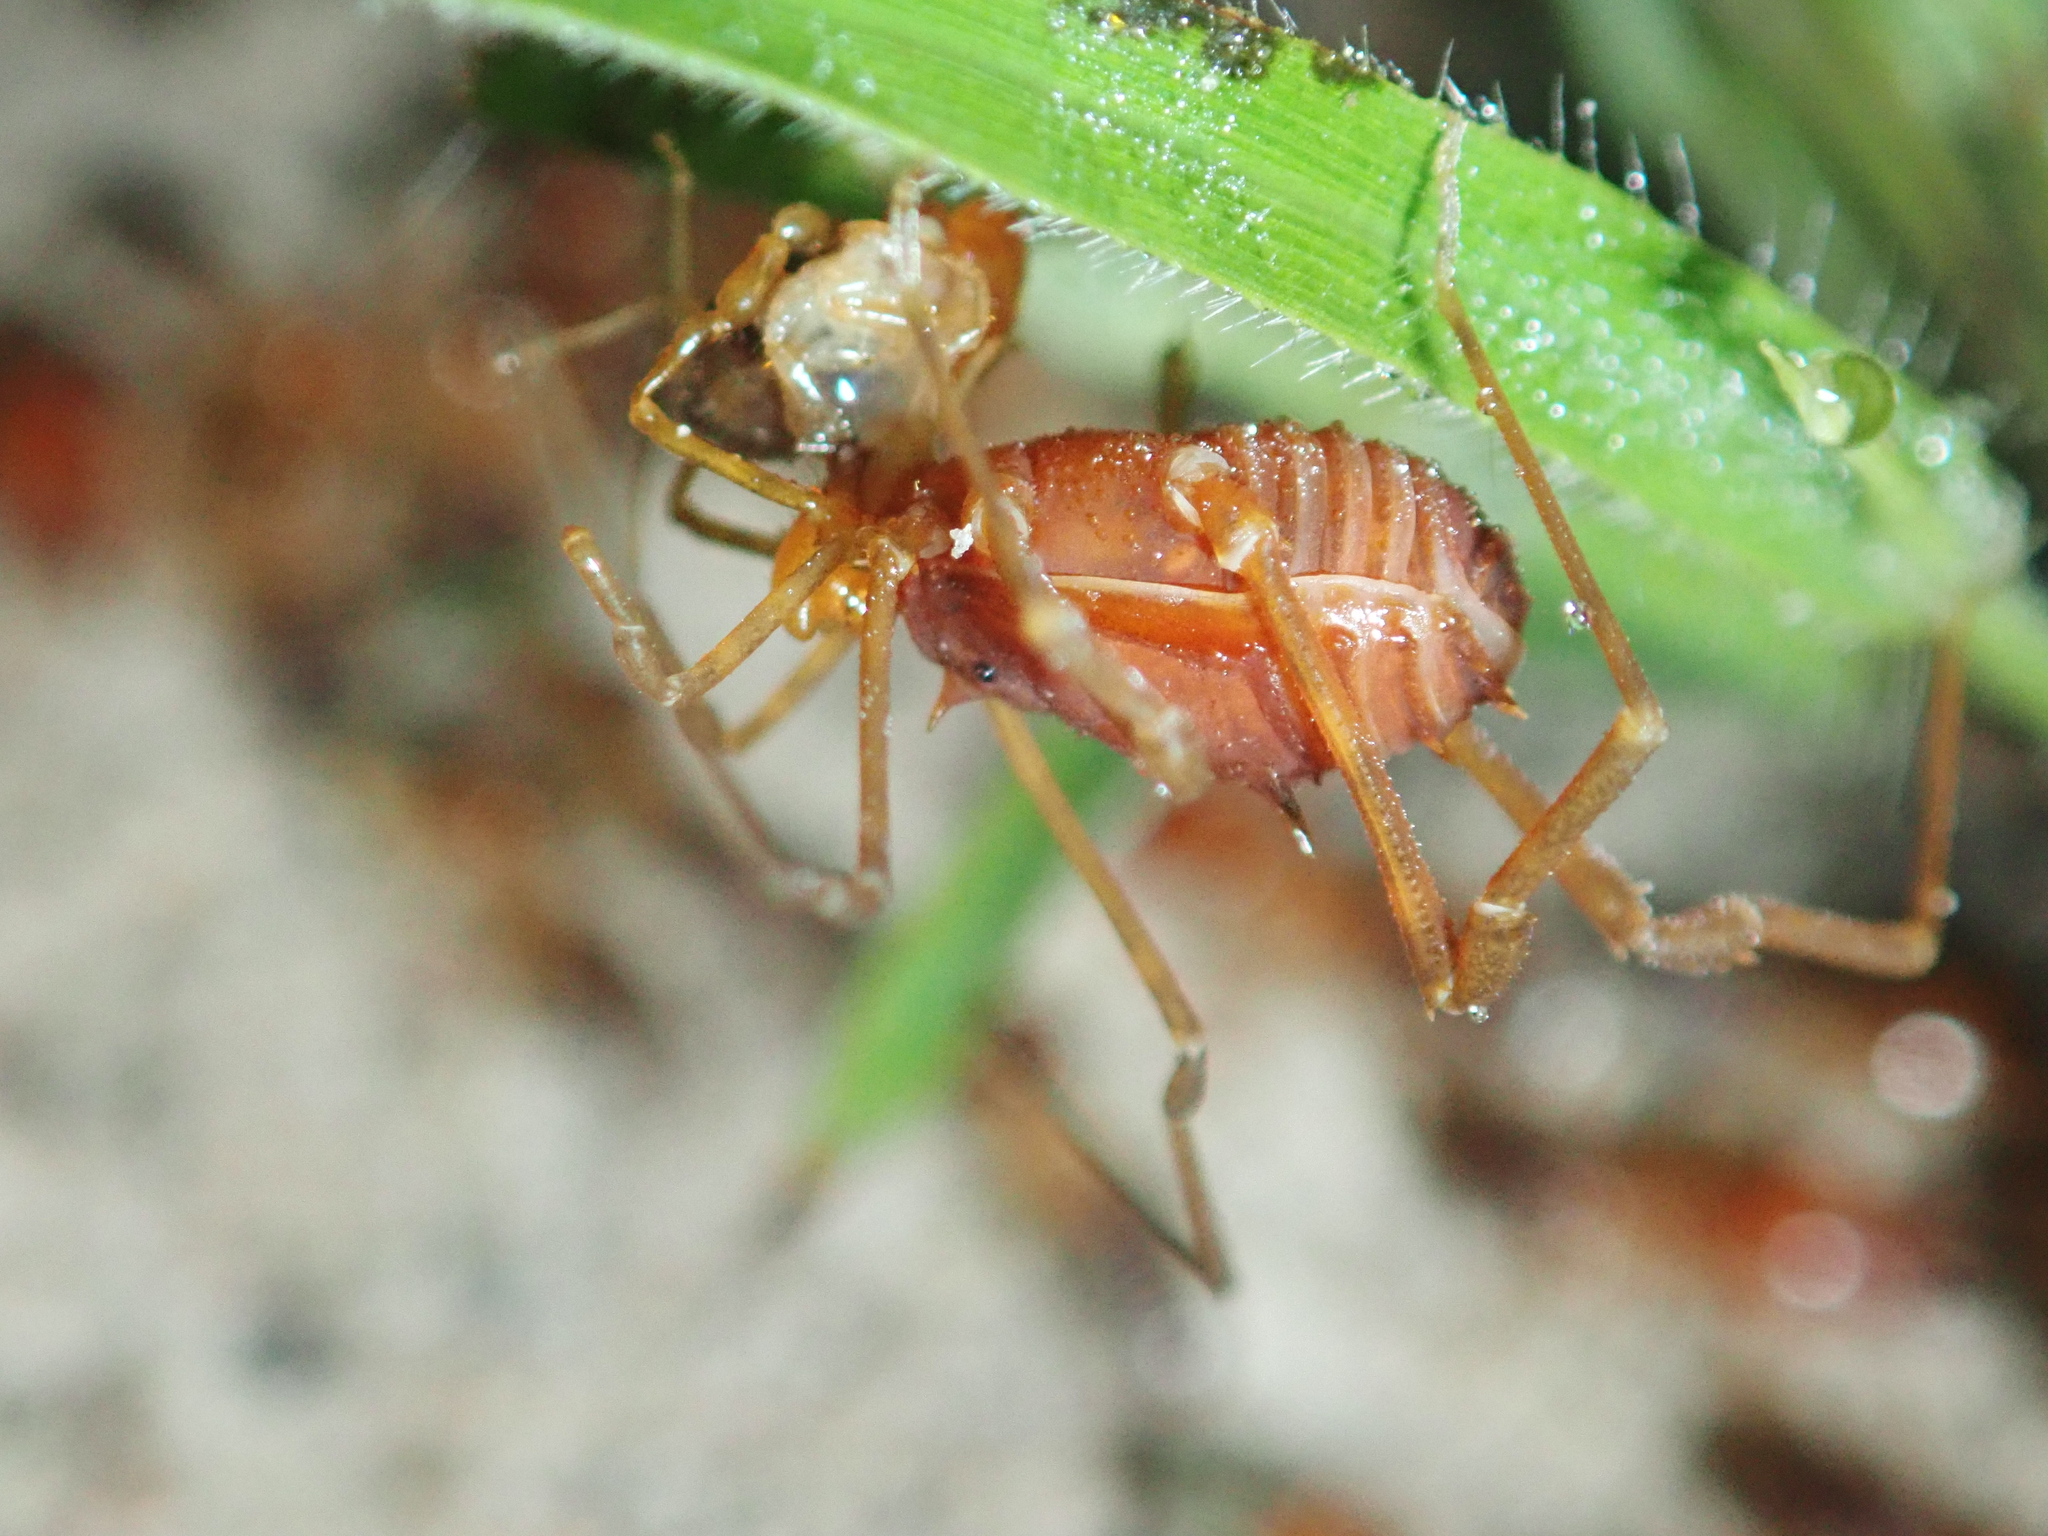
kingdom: Animalia
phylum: Arthropoda
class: Arachnida
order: Opiliones
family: Stygnidae
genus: Stygnus
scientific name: Stygnus polyacanthus
